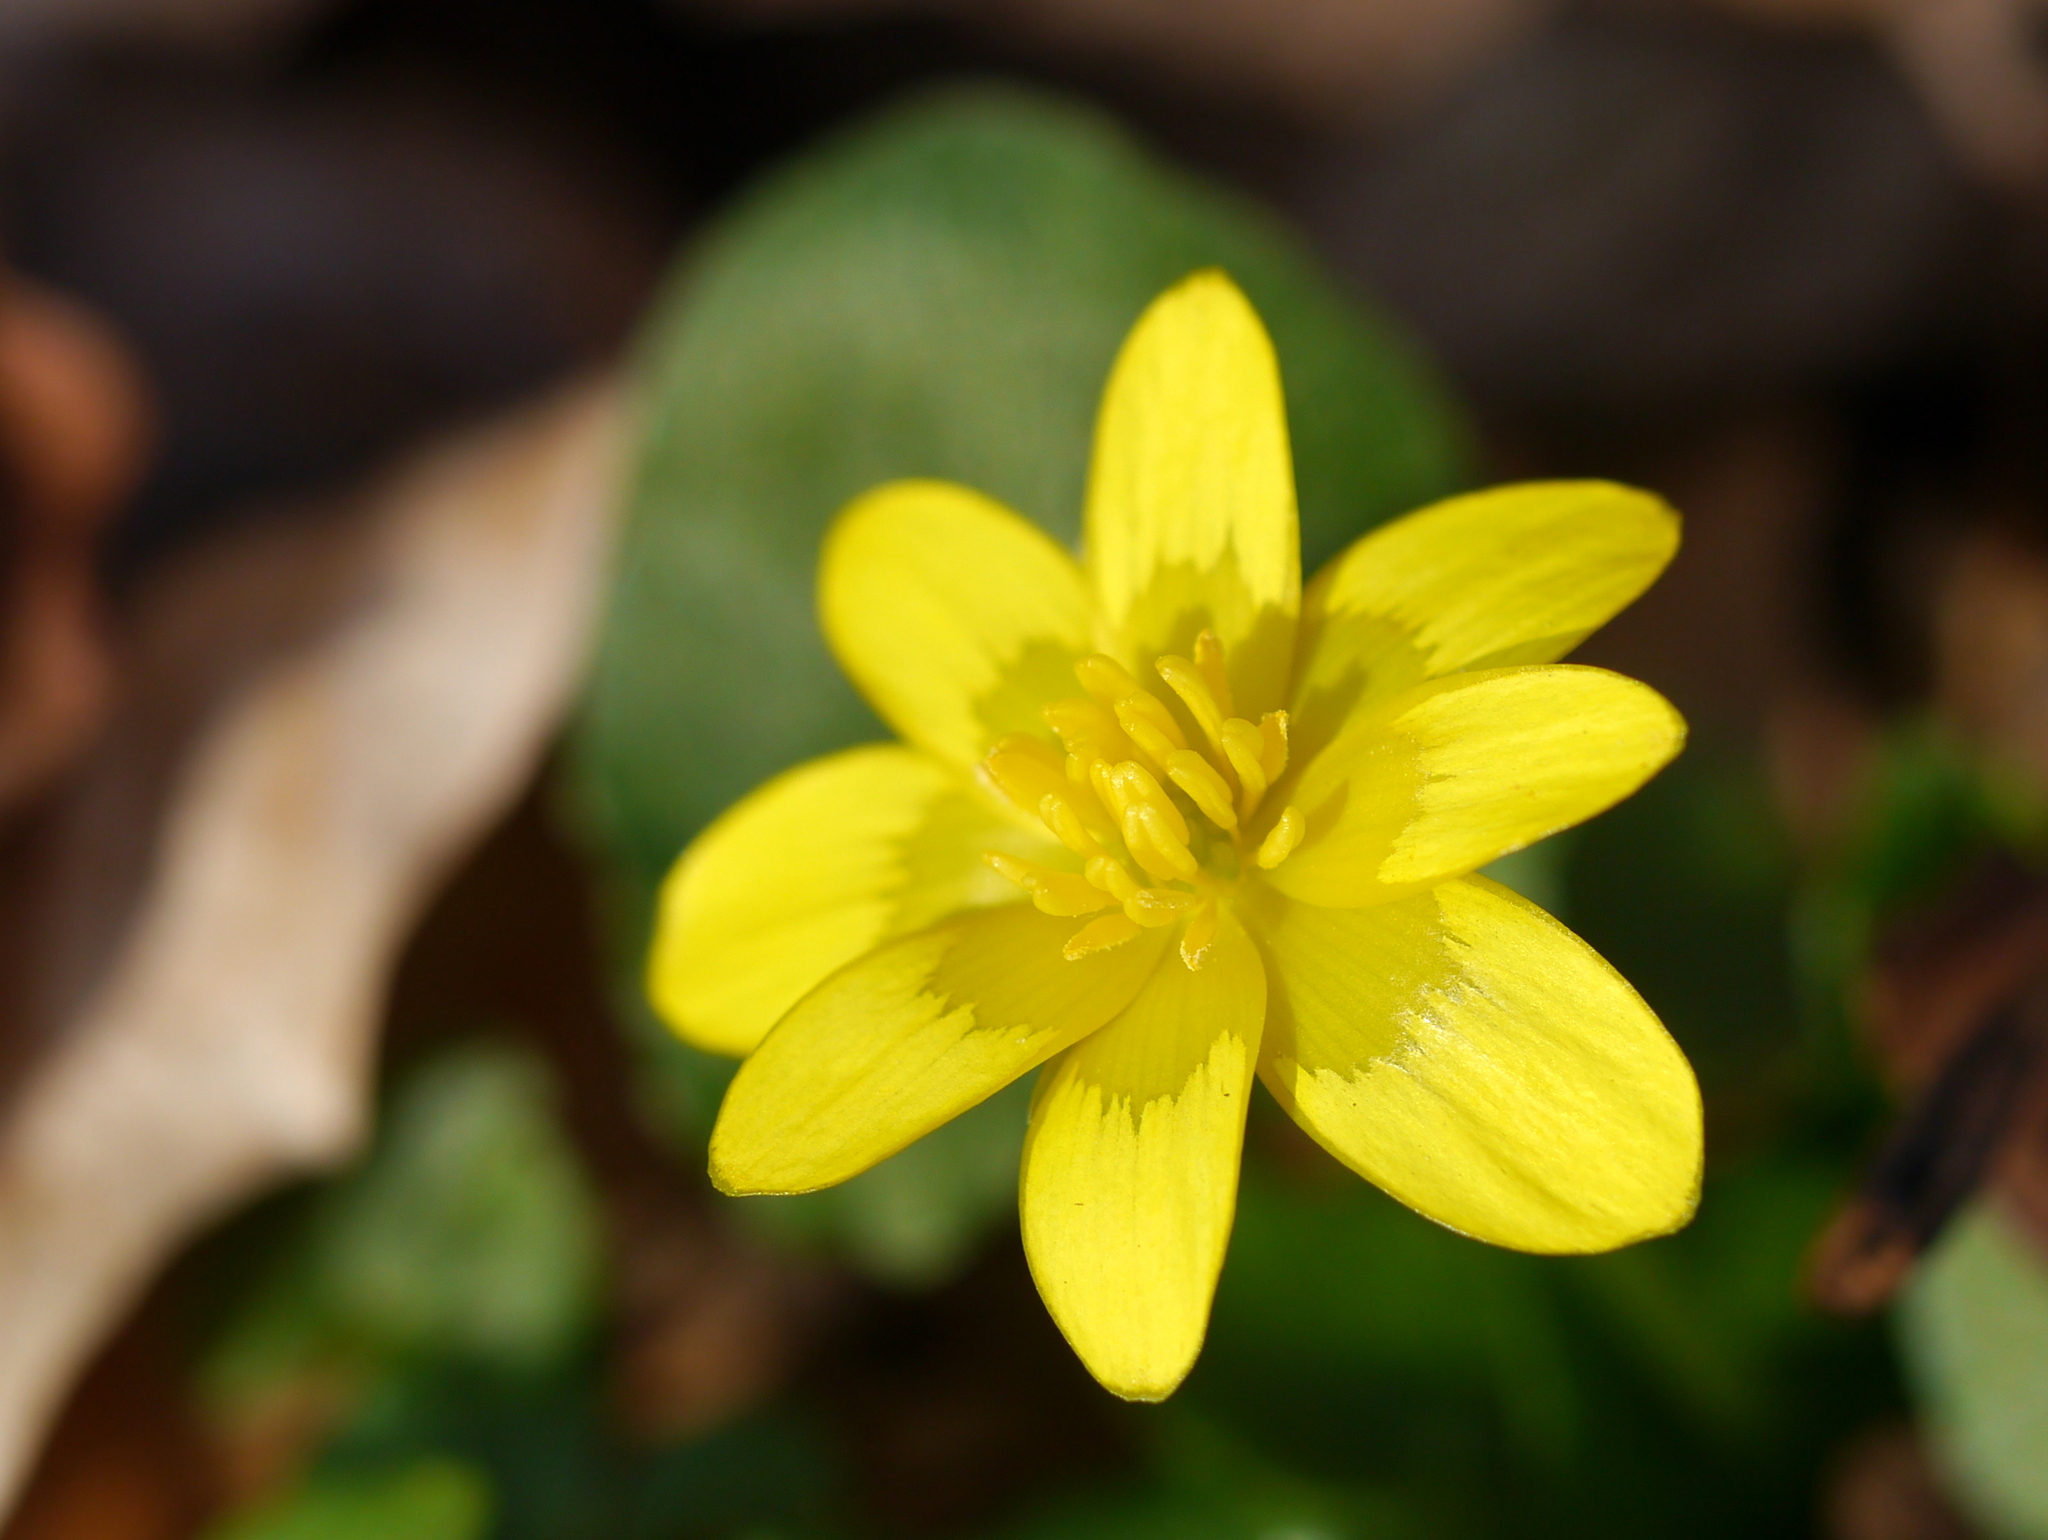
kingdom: Plantae
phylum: Tracheophyta
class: Magnoliopsida
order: Ranunculales
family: Ranunculaceae
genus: Ficaria
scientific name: Ficaria verna
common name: Lesser celandine
